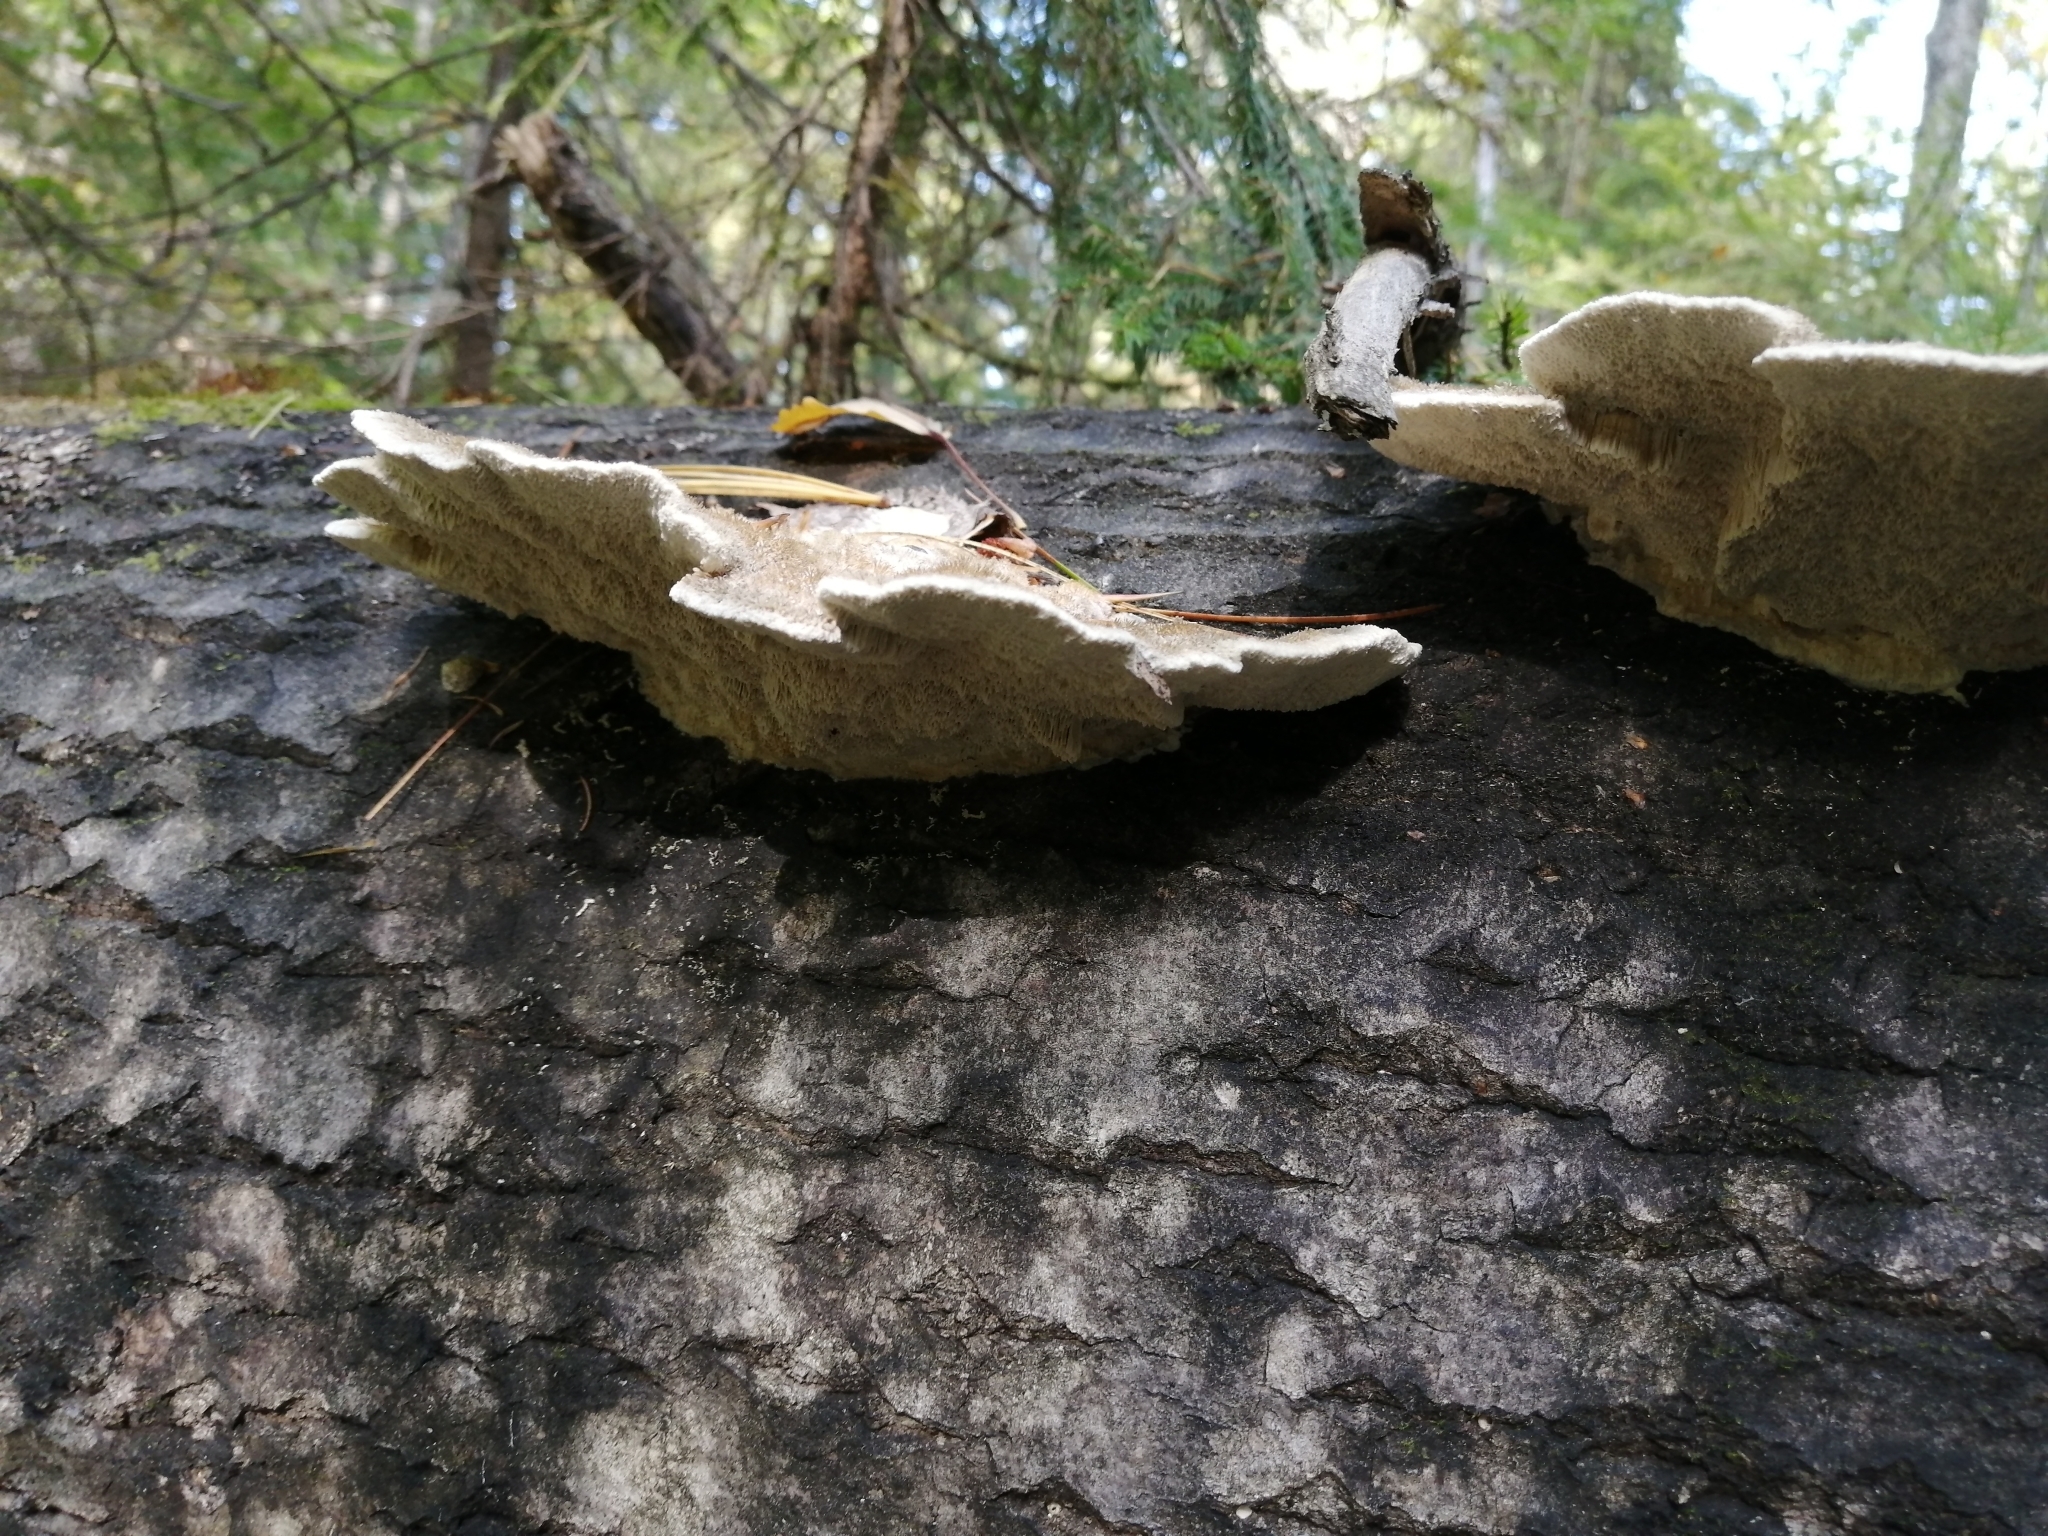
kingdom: Fungi
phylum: Basidiomycota
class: Agaricomycetes
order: Polyporales
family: Polyporaceae
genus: Trametes
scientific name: Trametes trogii
